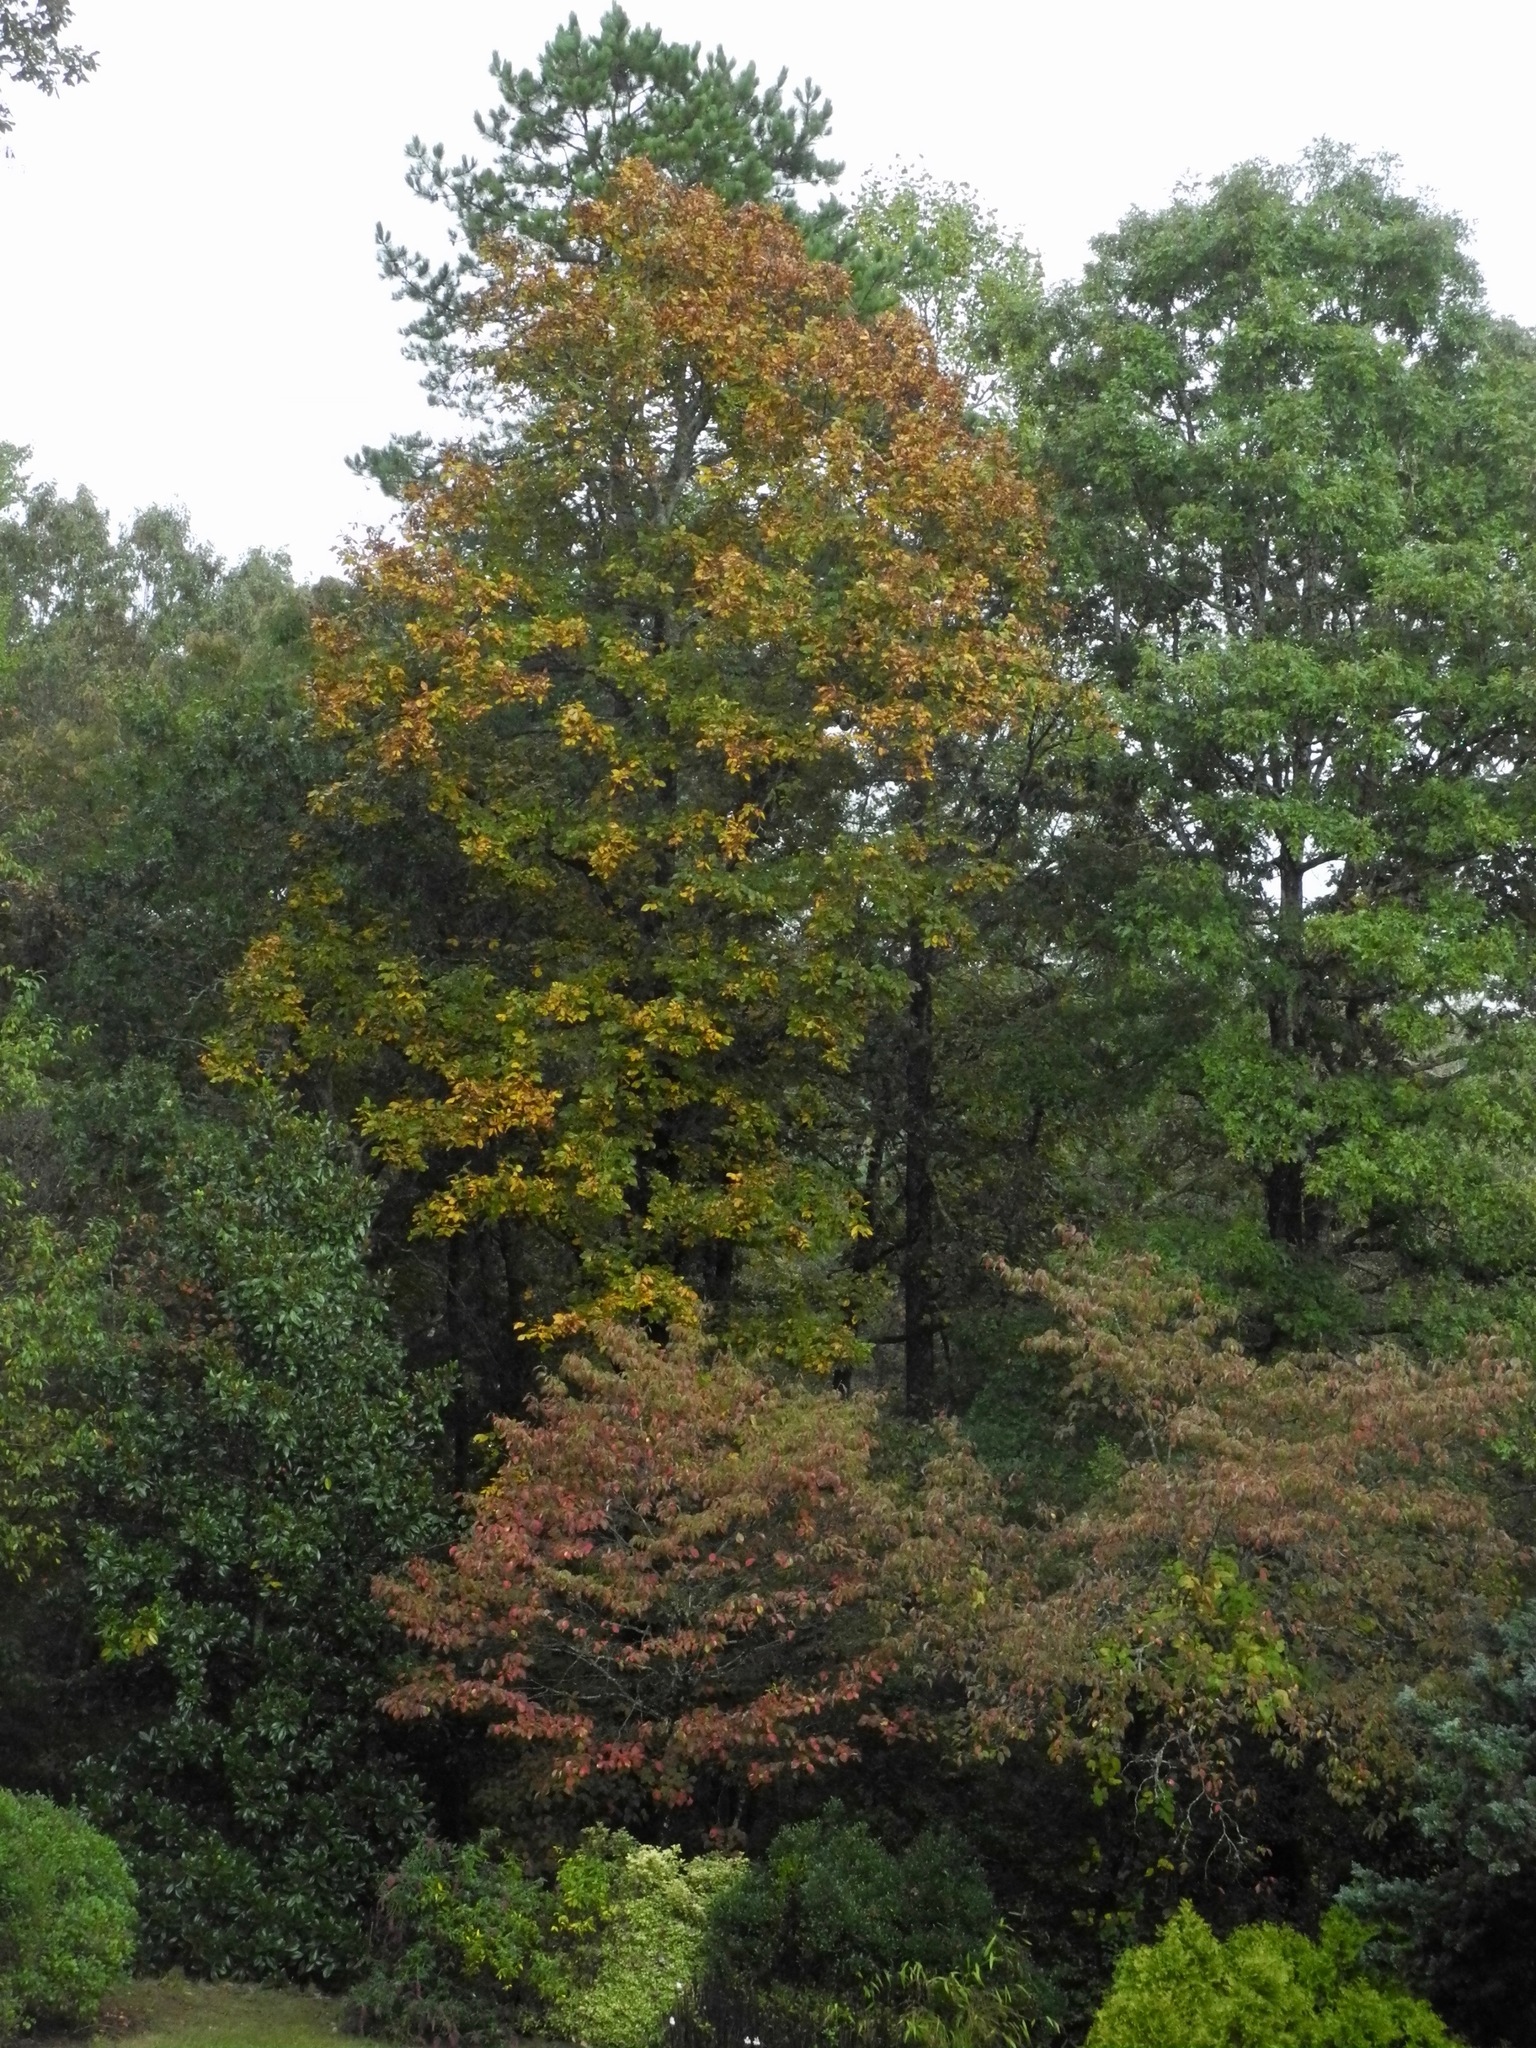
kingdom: Plantae
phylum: Tracheophyta
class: Magnoliopsida
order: Fagales
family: Juglandaceae
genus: Carya
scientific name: Carya alba
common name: Mockernut hickory
